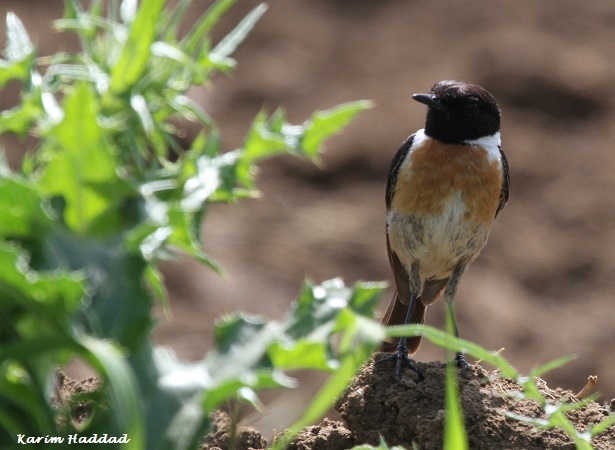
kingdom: Animalia
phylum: Chordata
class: Aves
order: Passeriformes
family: Muscicapidae
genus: Saxicola
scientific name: Saxicola rubicola
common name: European stonechat
